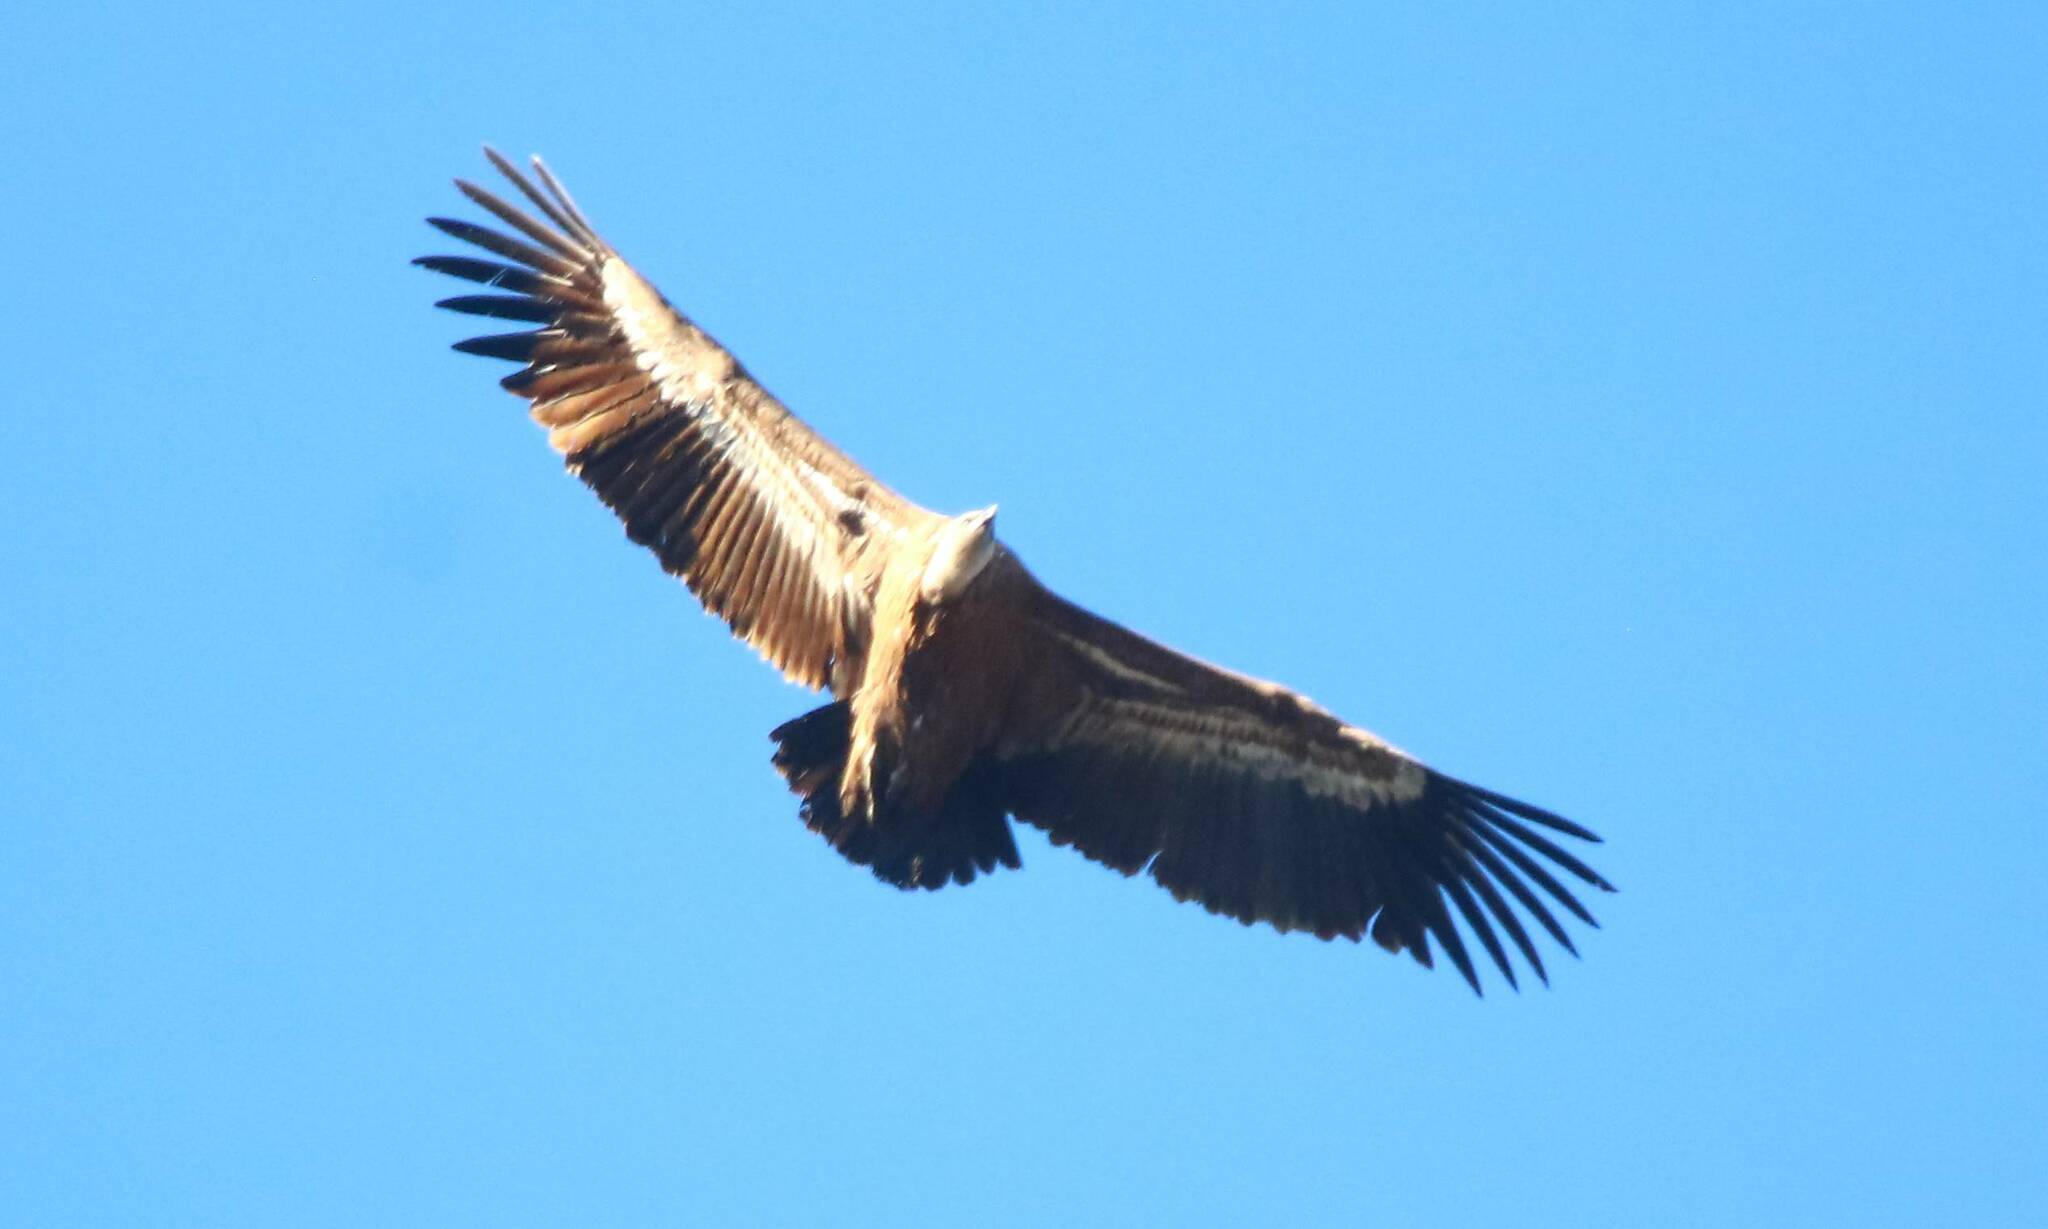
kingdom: Animalia
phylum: Chordata
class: Aves
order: Accipitriformes
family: Accipitridae
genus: Gyps
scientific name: Gyps fulvus
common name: Griffon vulture
